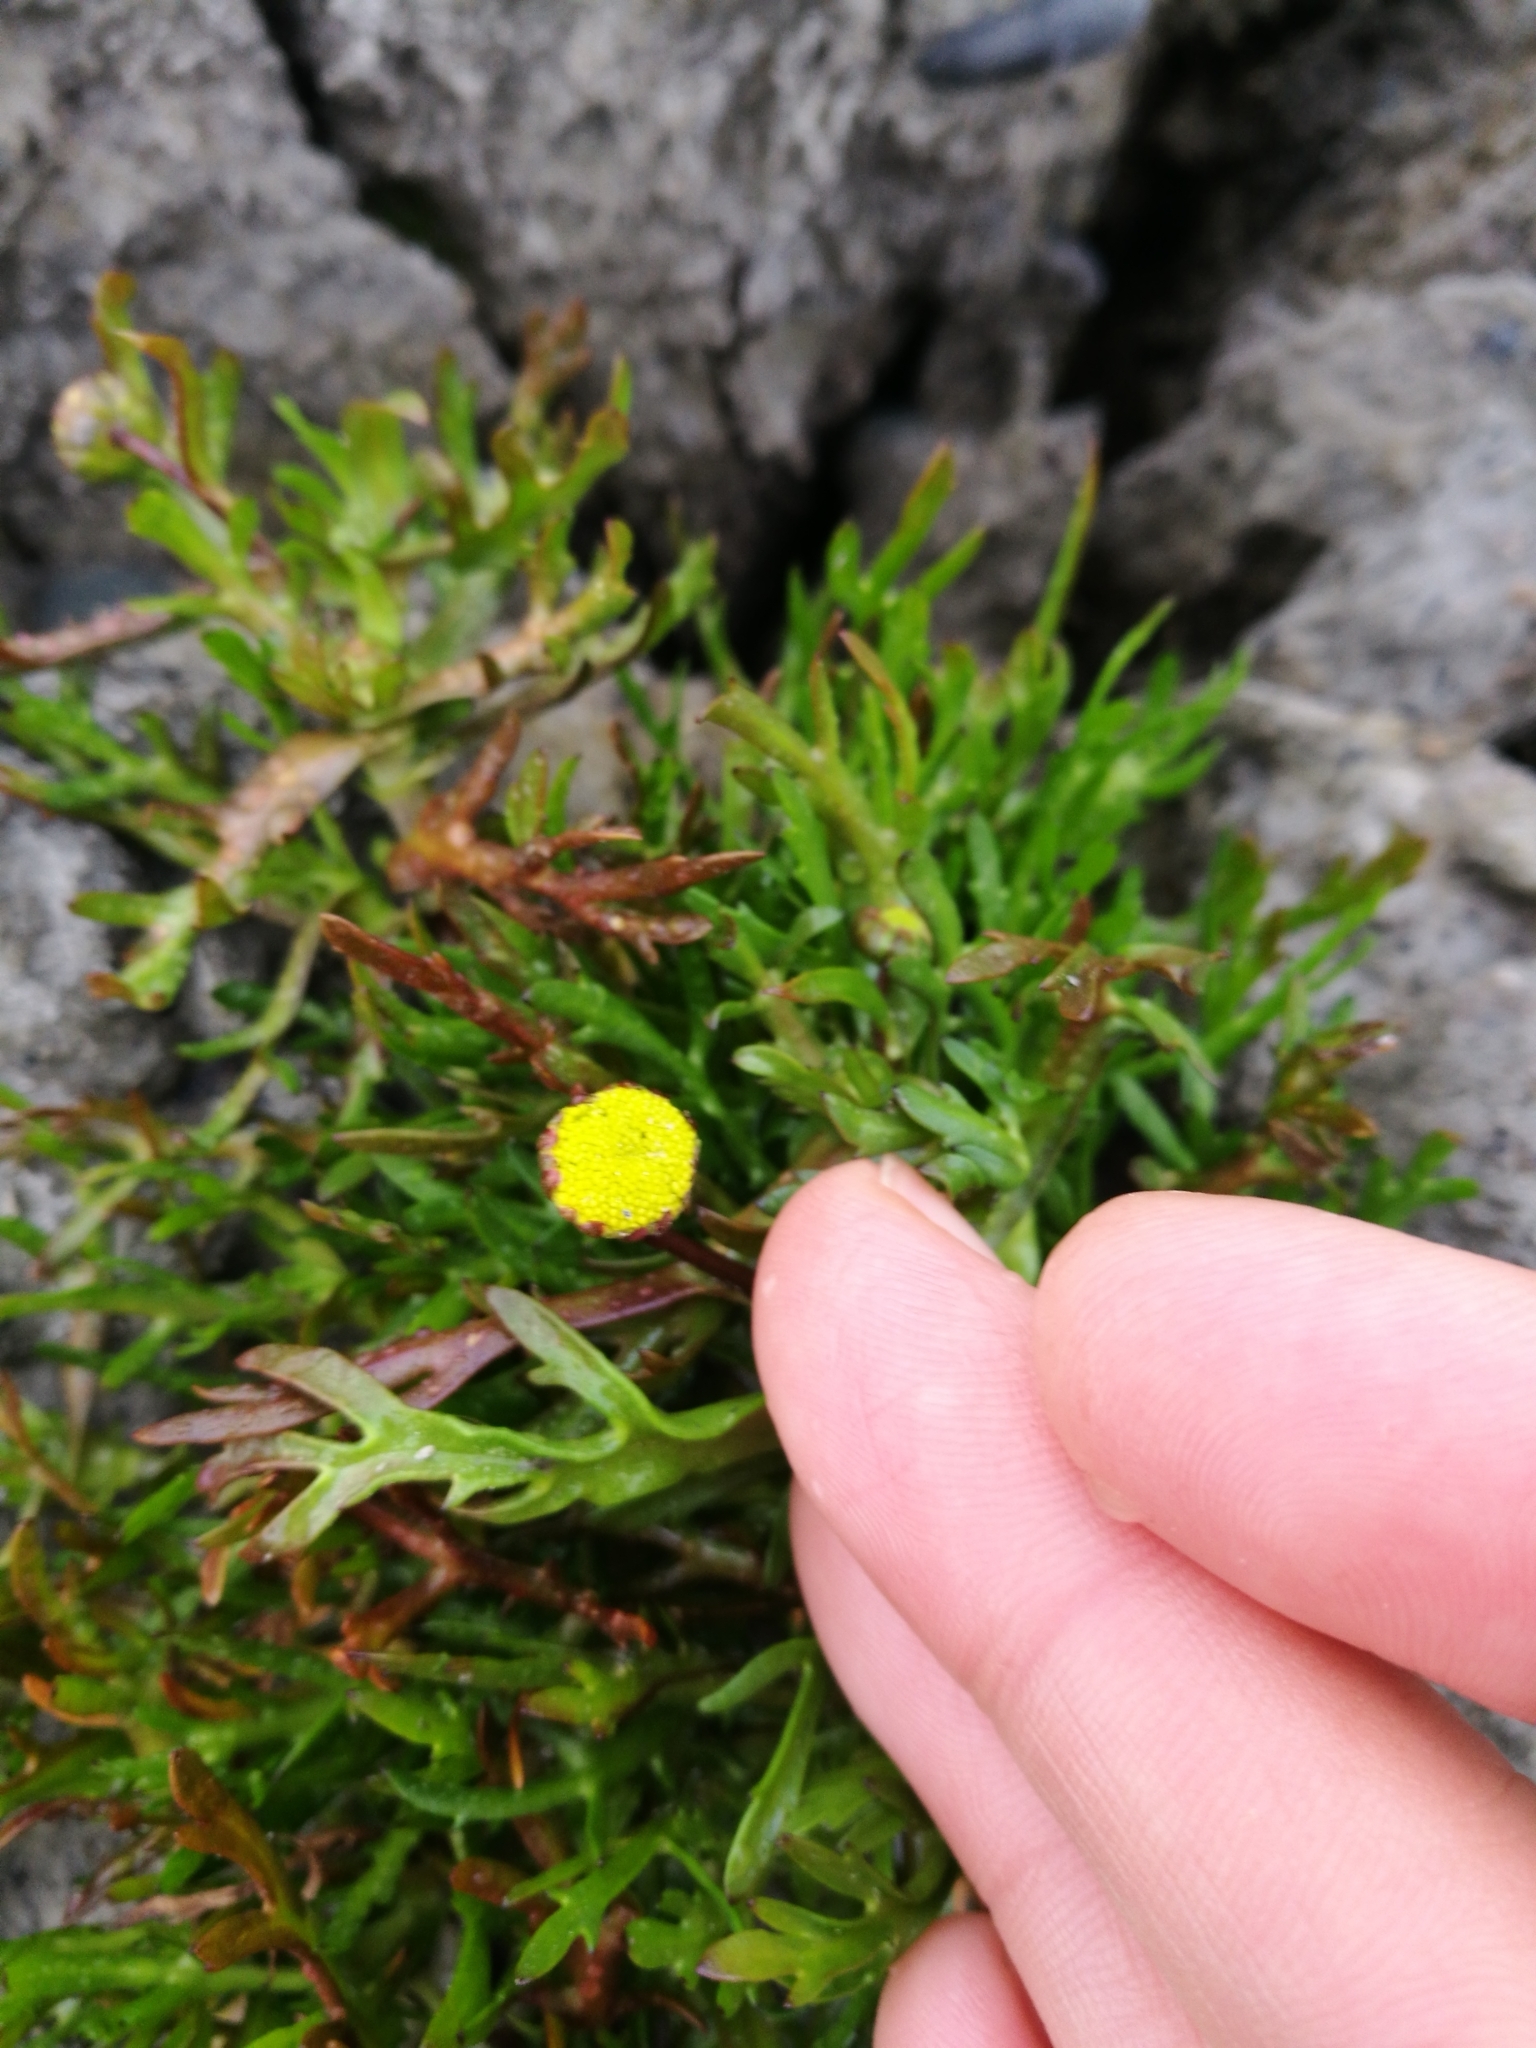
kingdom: Plantae
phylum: Tracheophyta
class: Magnoliopsida
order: Asterales
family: Asteraceae
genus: Cotula
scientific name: Cotula coronopifolia
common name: Buttonweed
